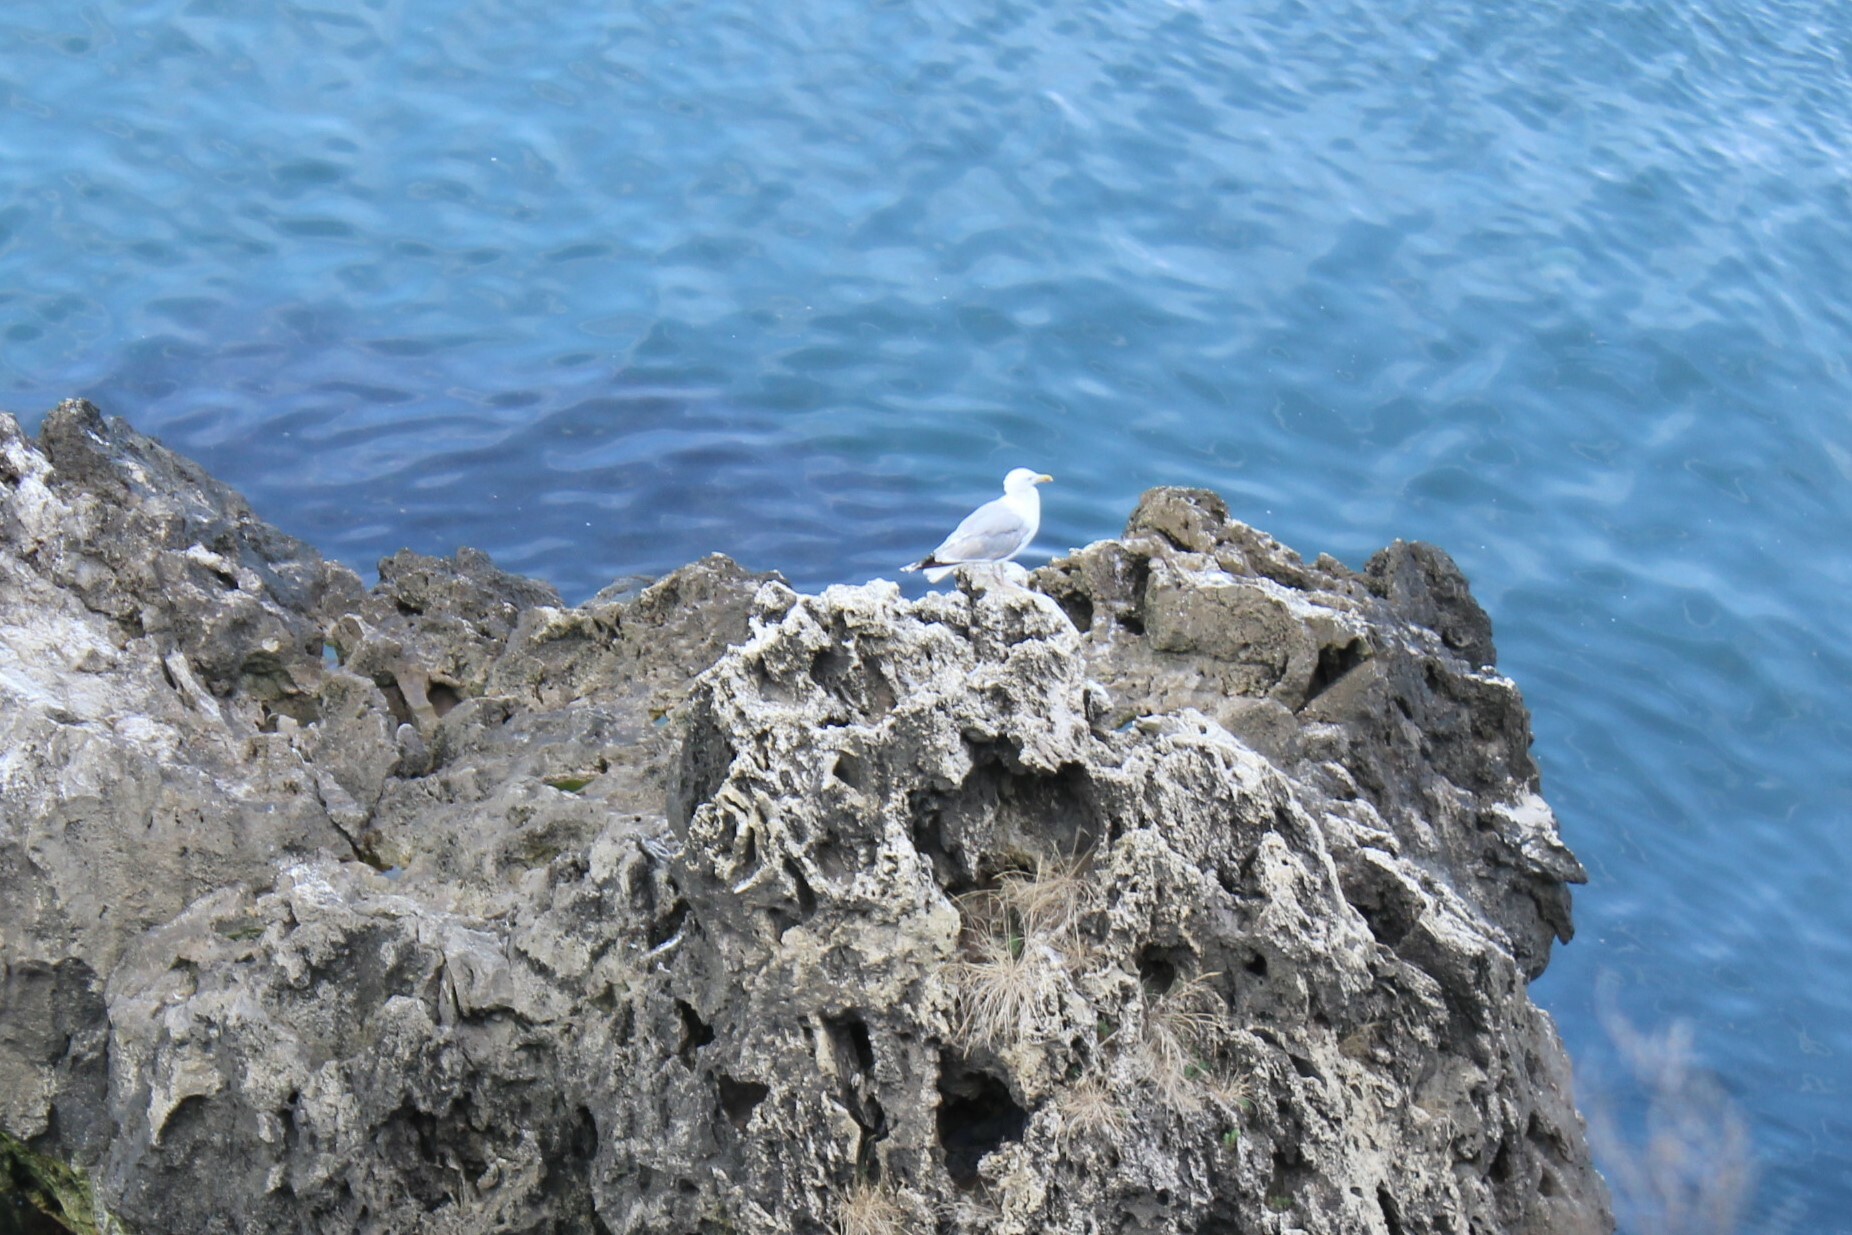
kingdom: Animalia
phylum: Chordata
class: Aves
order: Charadriiformes
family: Laridae
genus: Larus
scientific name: Larus michahellis
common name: Yellow-legged gull
